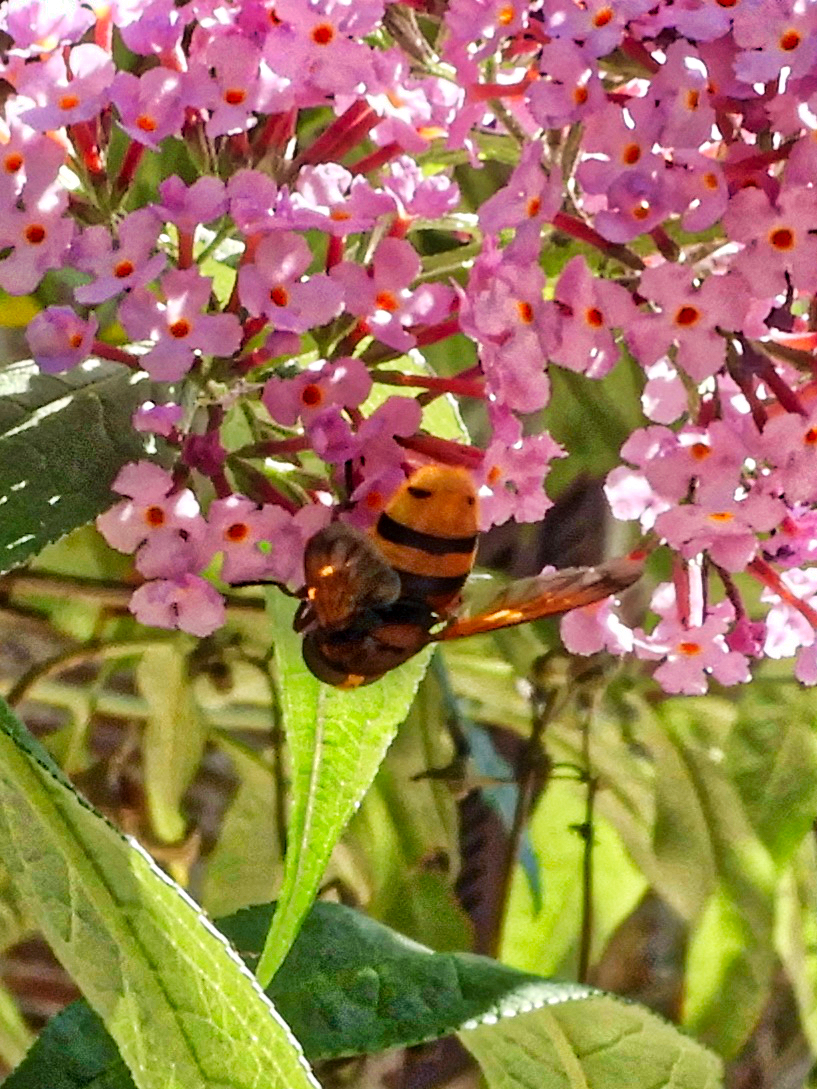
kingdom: Animalia
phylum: Arthropoda
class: Insecta
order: Diptera
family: Syrphidae
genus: Volucella
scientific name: Volucella zonaria
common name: Hornet hoverfly
